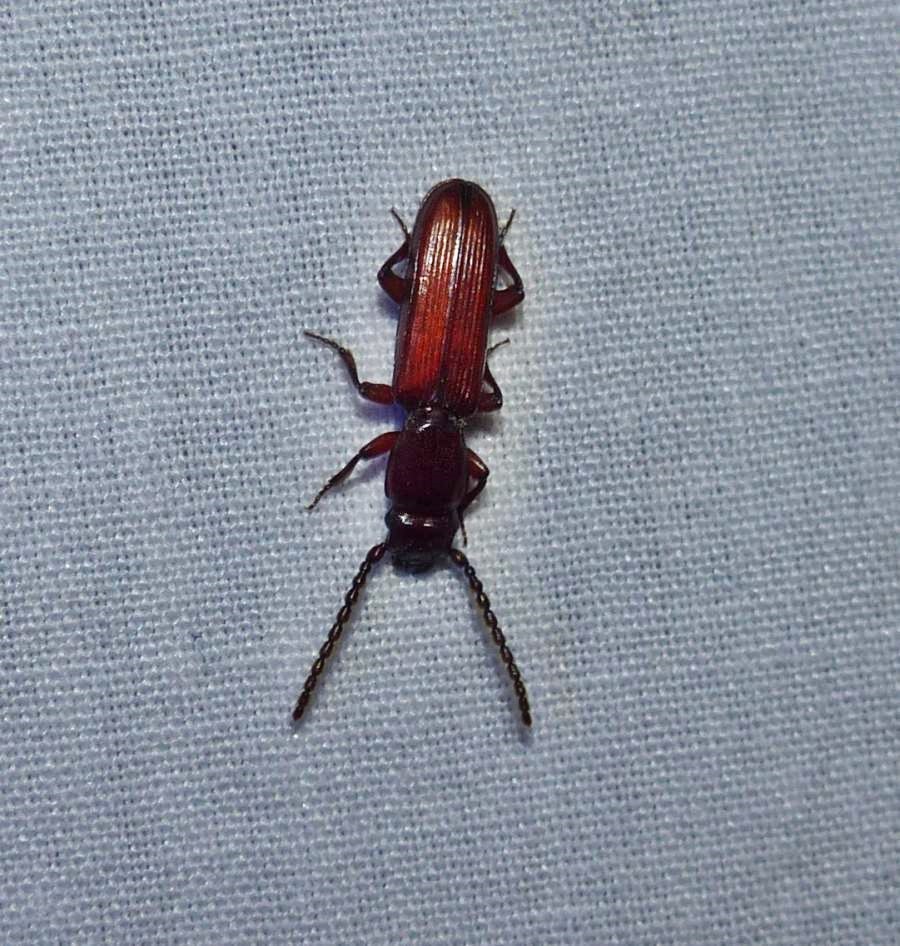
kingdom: Animalia
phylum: Arthropoda
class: Insecta
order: Coleoptera
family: Passandridae
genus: Catogenus
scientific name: Catogenus rufus
